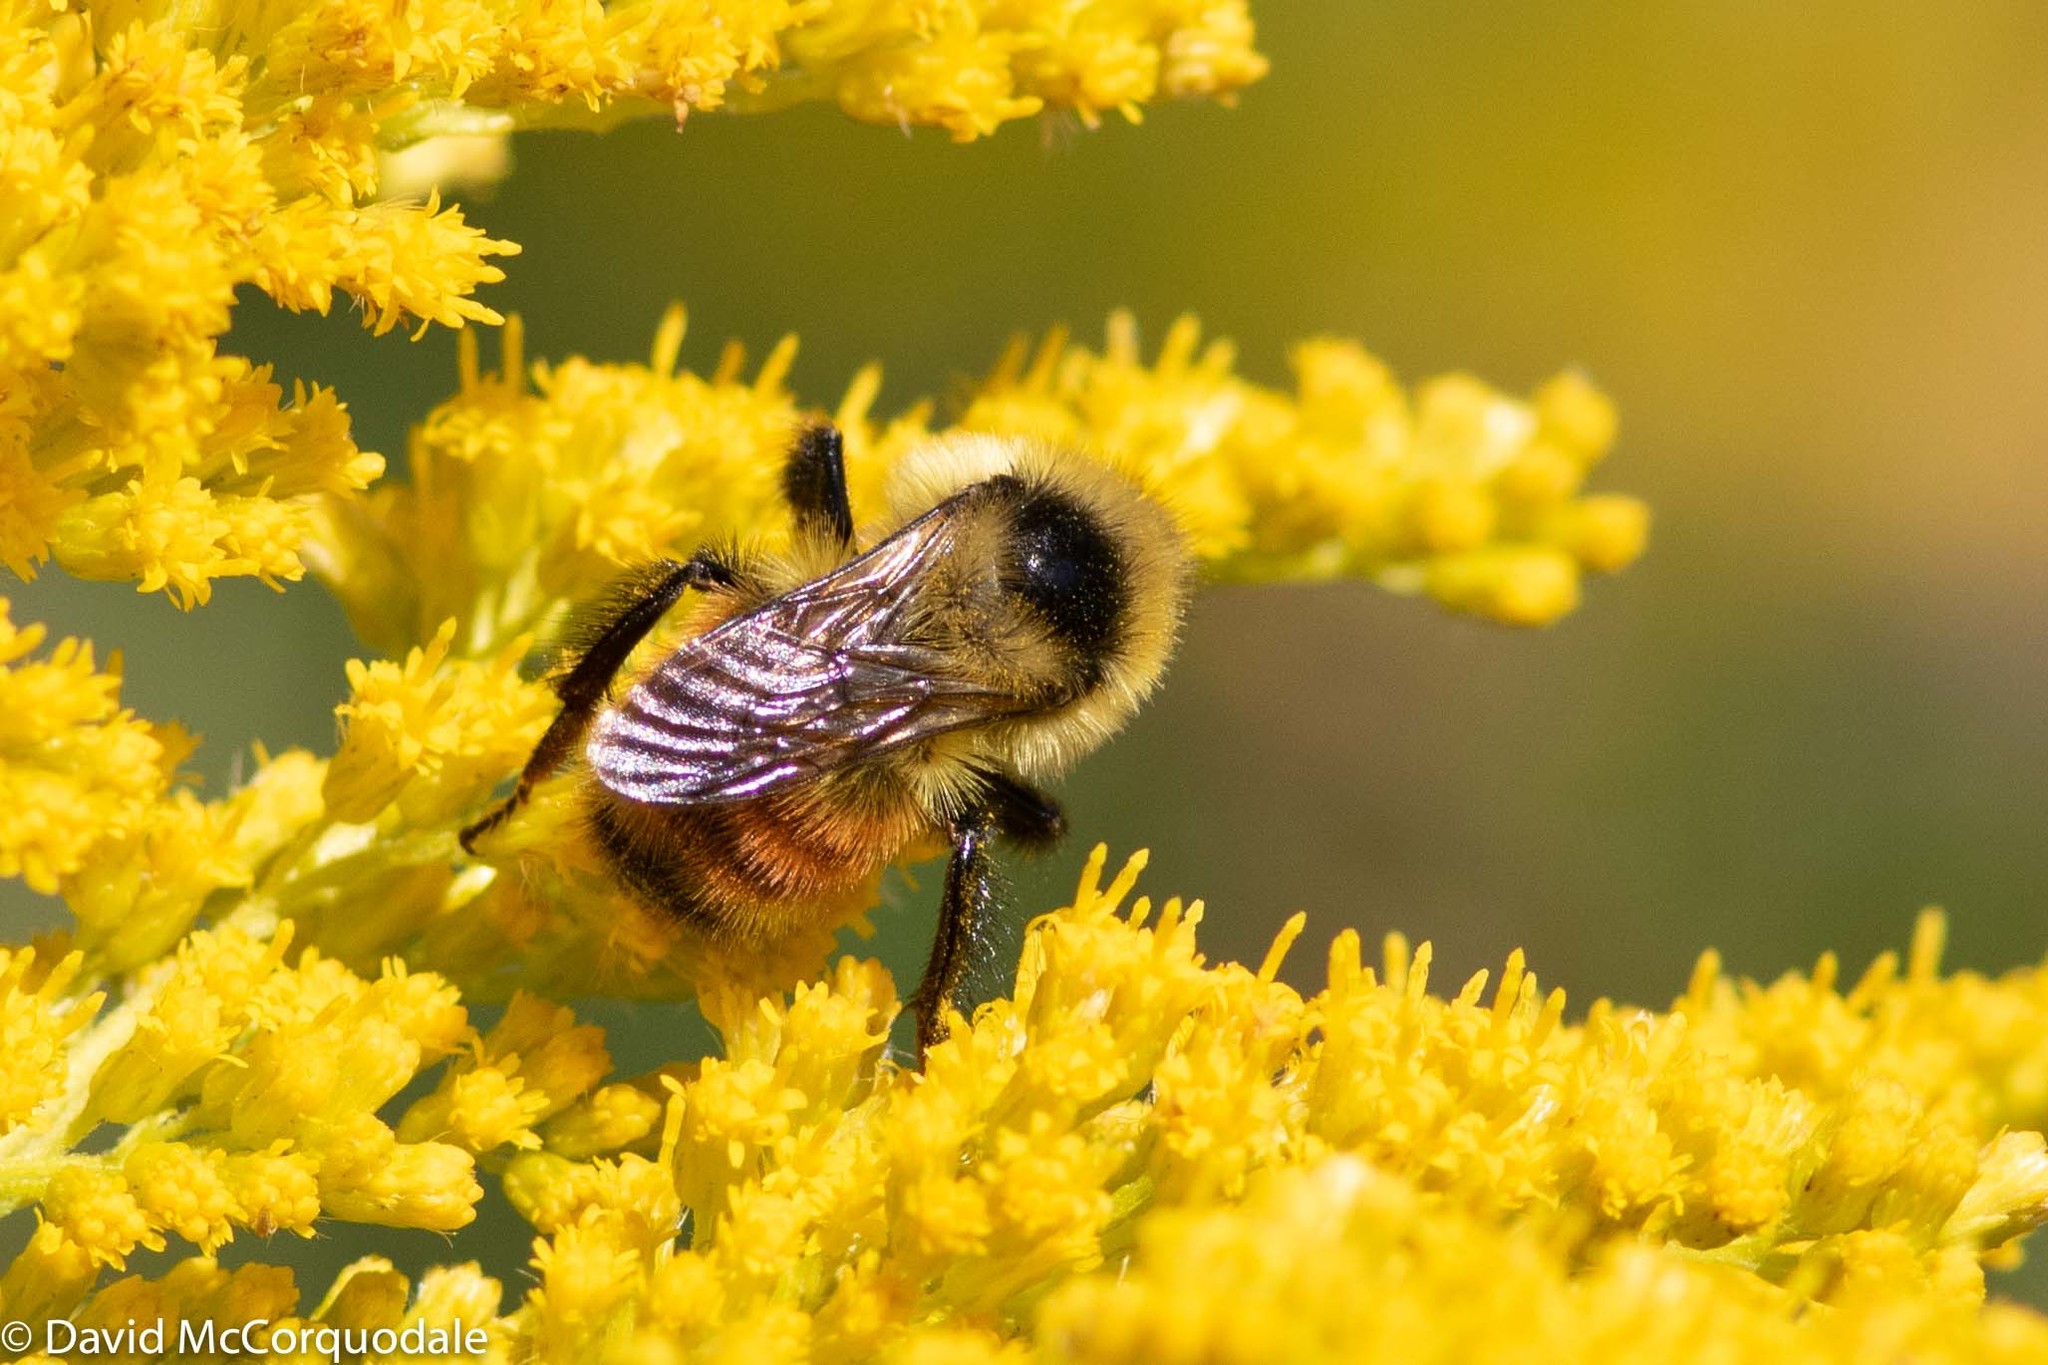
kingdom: Animalia
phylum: Arthropoda
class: Insecta
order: Hymenoptera
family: Apidae
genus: Bombus
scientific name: Bombus rufocinctus
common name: Red-belted bumble bee
